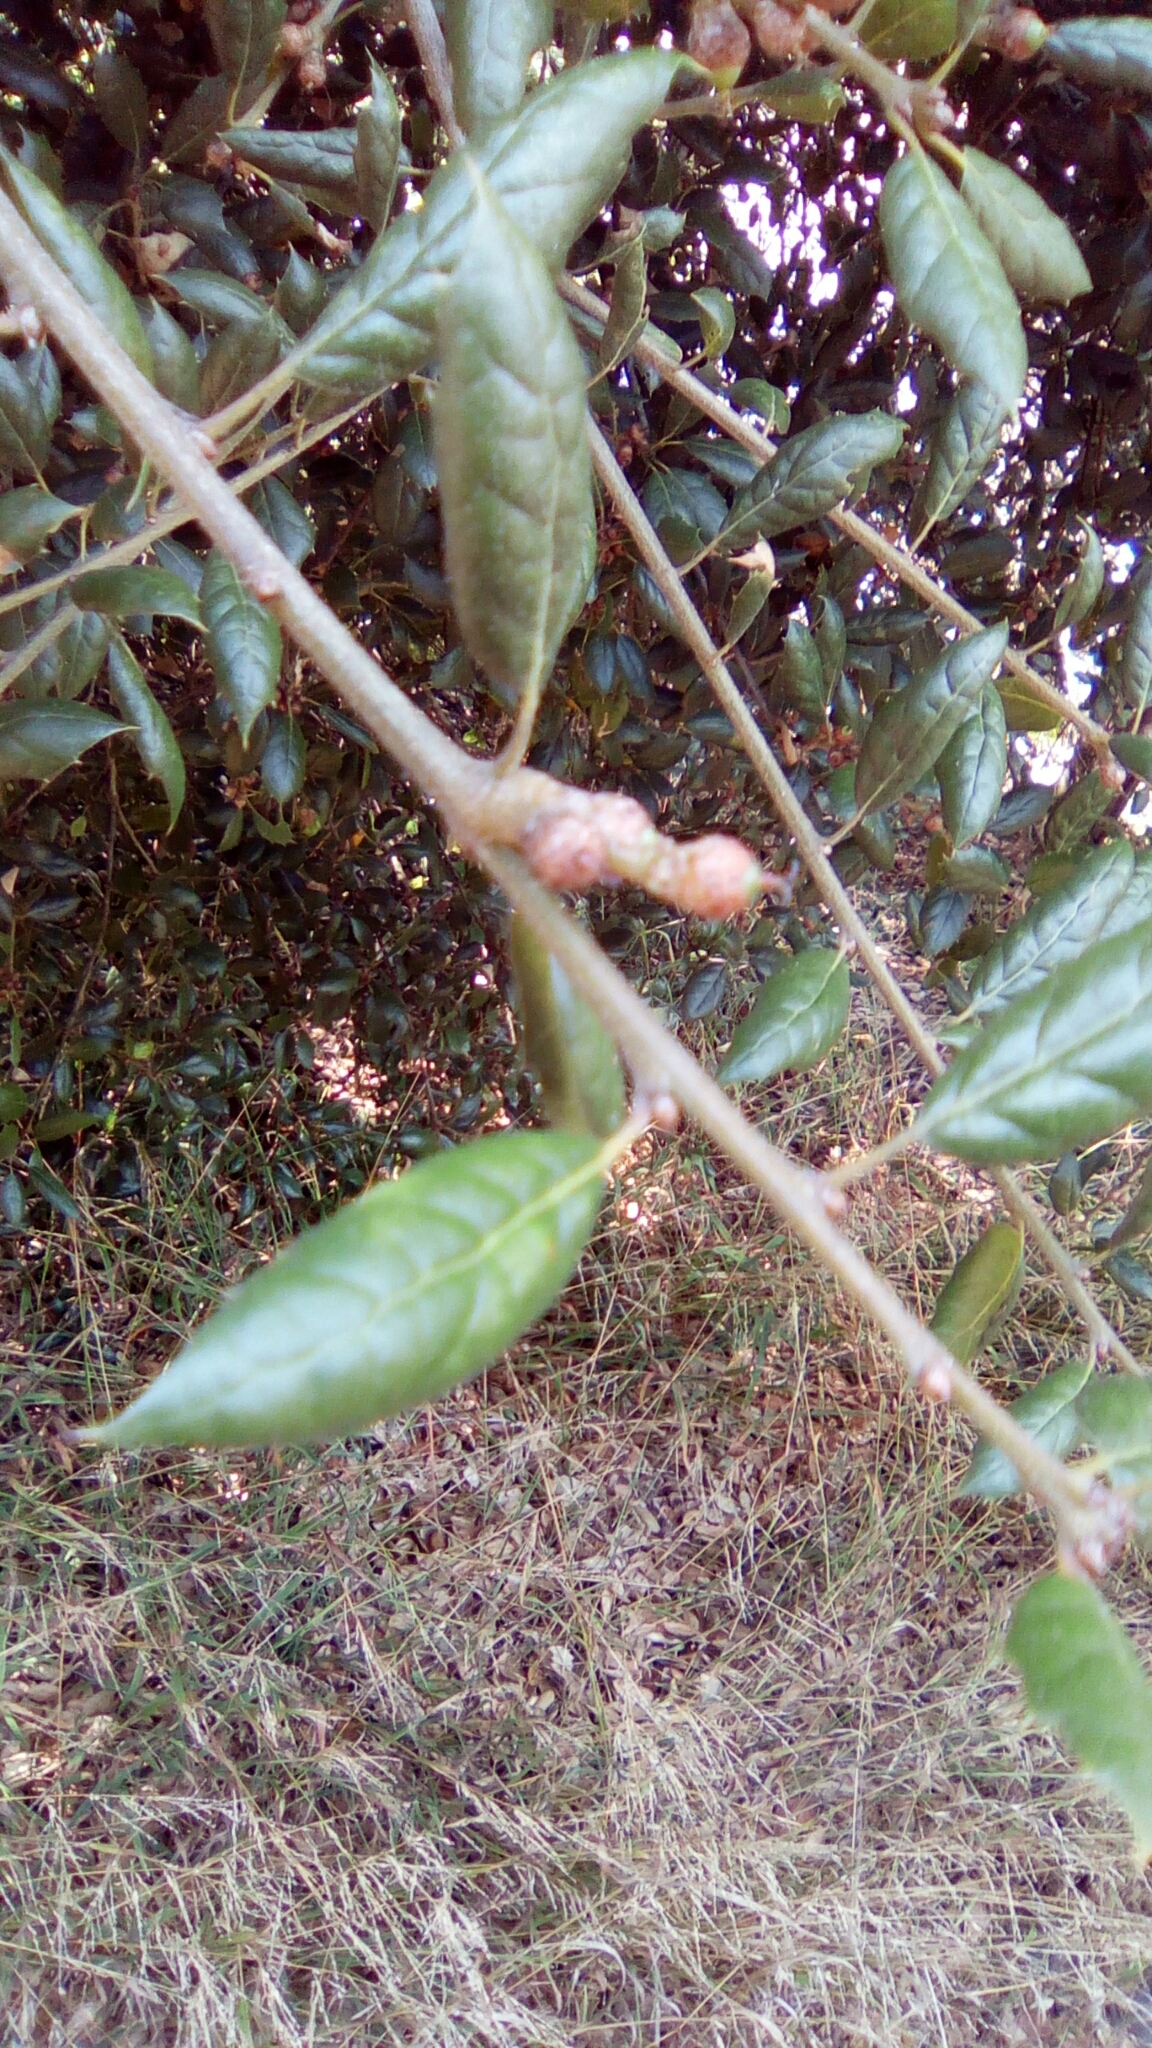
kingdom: Plantae
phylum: Tracheophyta
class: Magnoliopsida
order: Fagales
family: Fagaceae
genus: Quercus
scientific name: Quercus agrifolia
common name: California live oak
